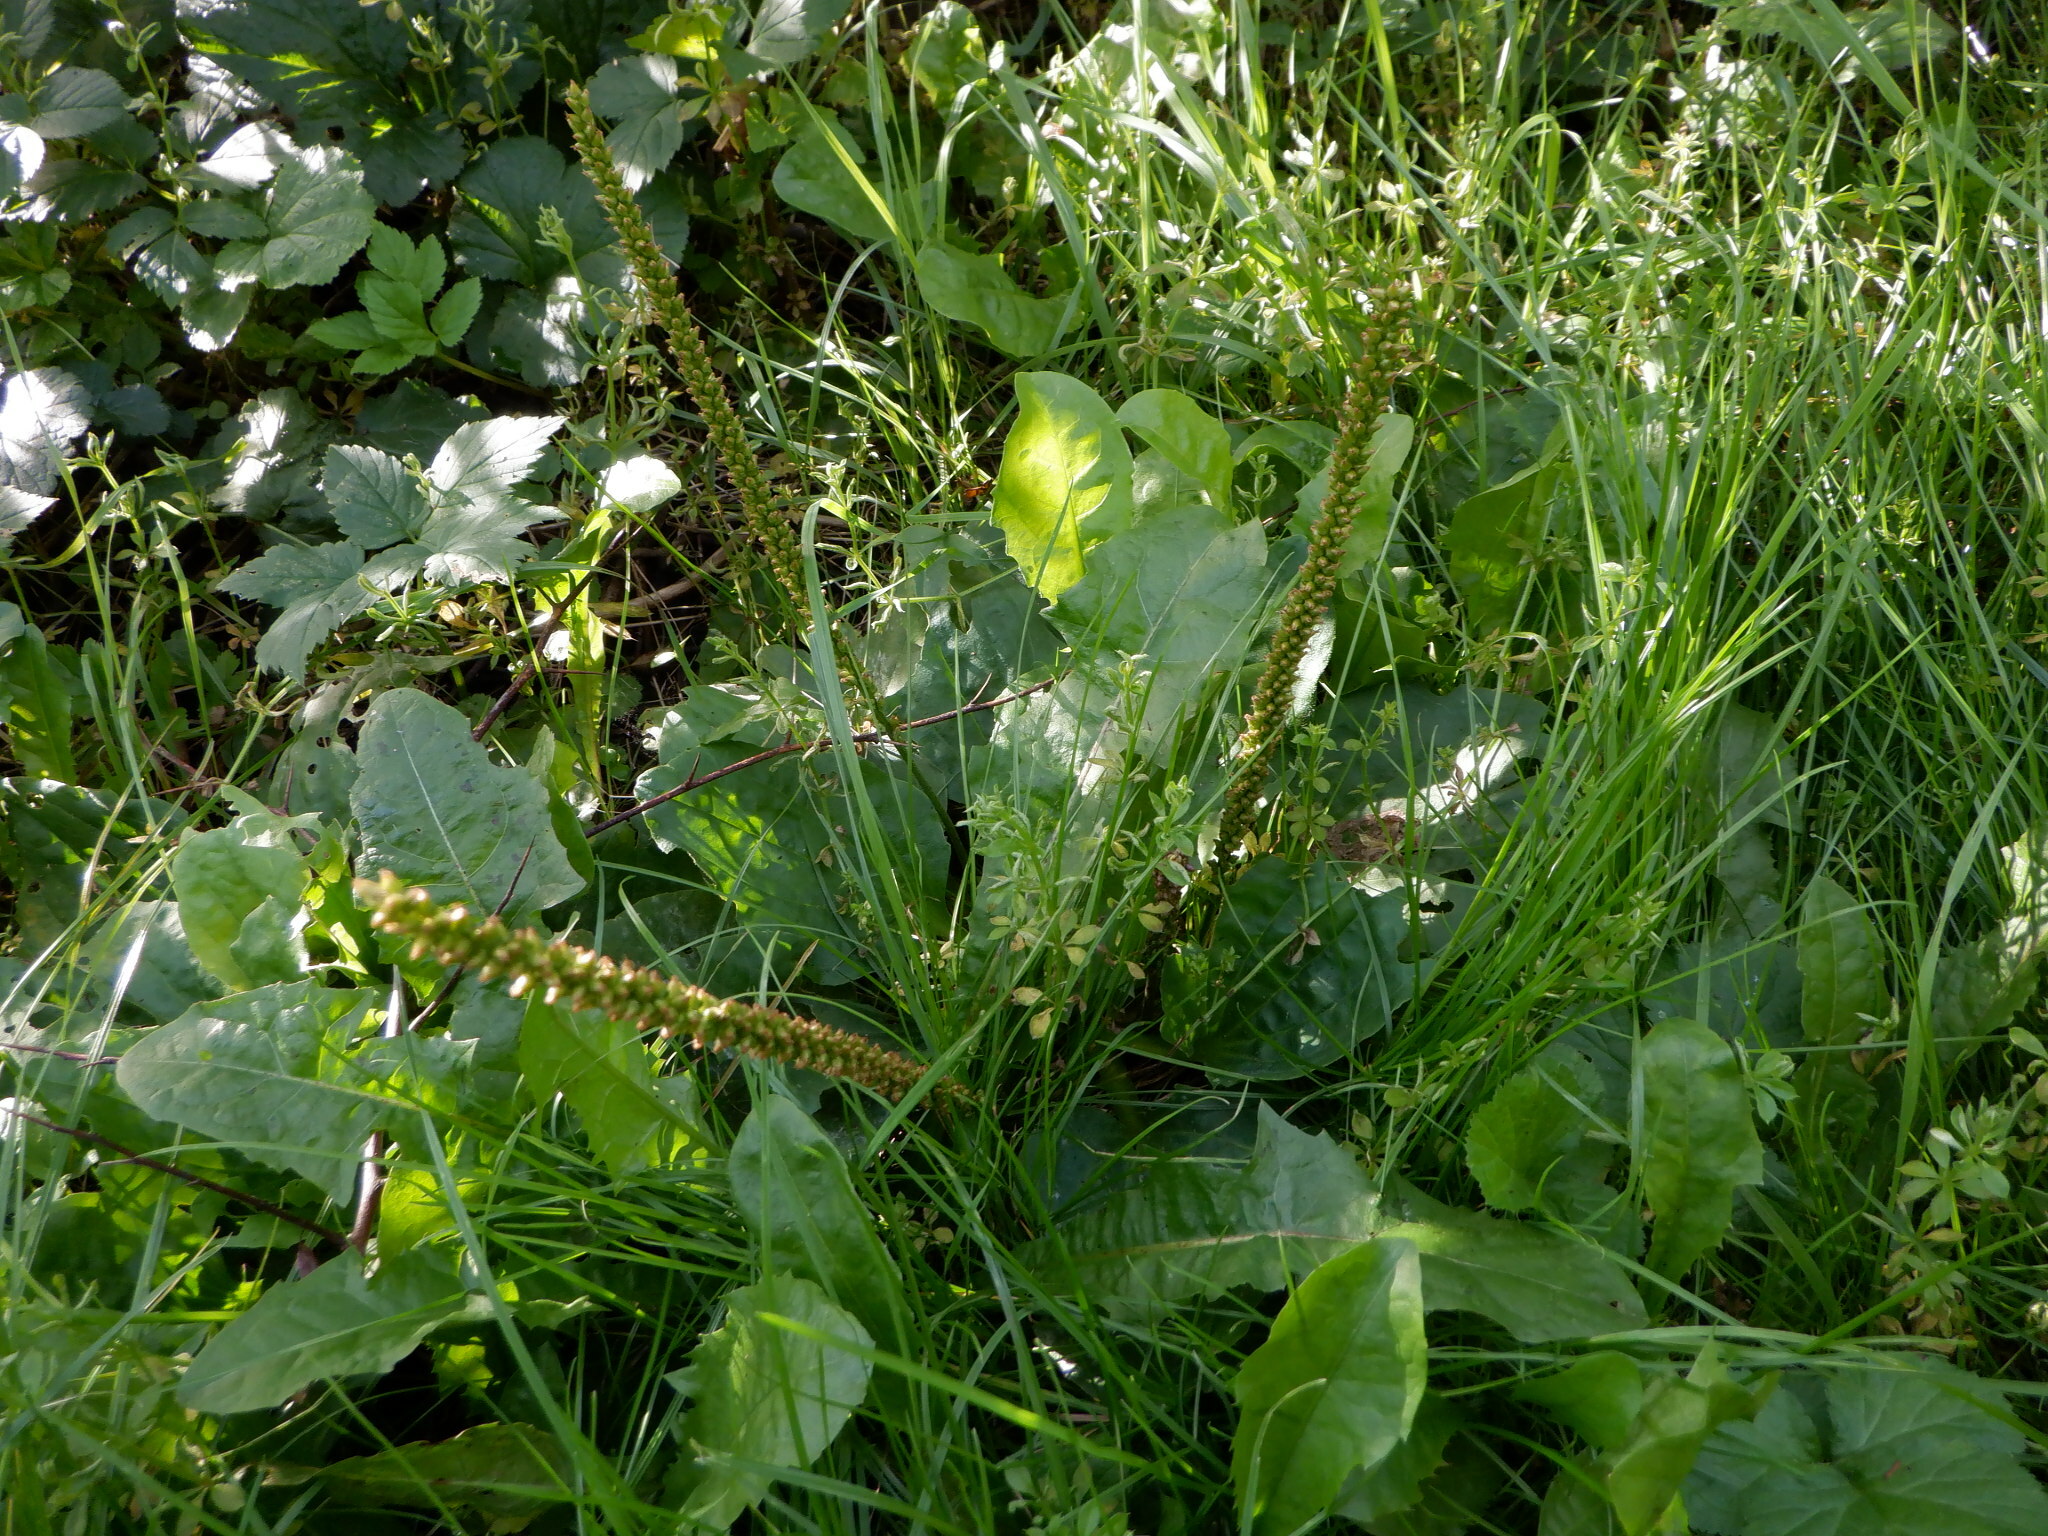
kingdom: Plantae
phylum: Tracheophyta
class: Magnoliopsida
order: Lamiales
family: Plantaginaceae
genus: Plantago
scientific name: Plantago major
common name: Common plantain
